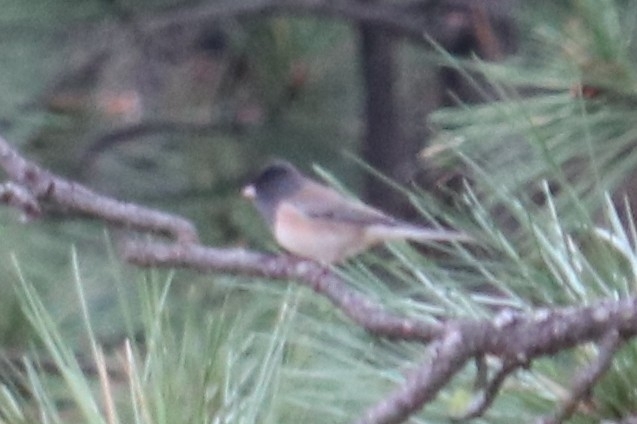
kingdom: Animalia
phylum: Chordata
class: Aves
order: Passeriformes
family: Passerellidae
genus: Junco
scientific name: Junco hyemalis
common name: Dark-eyed junco
